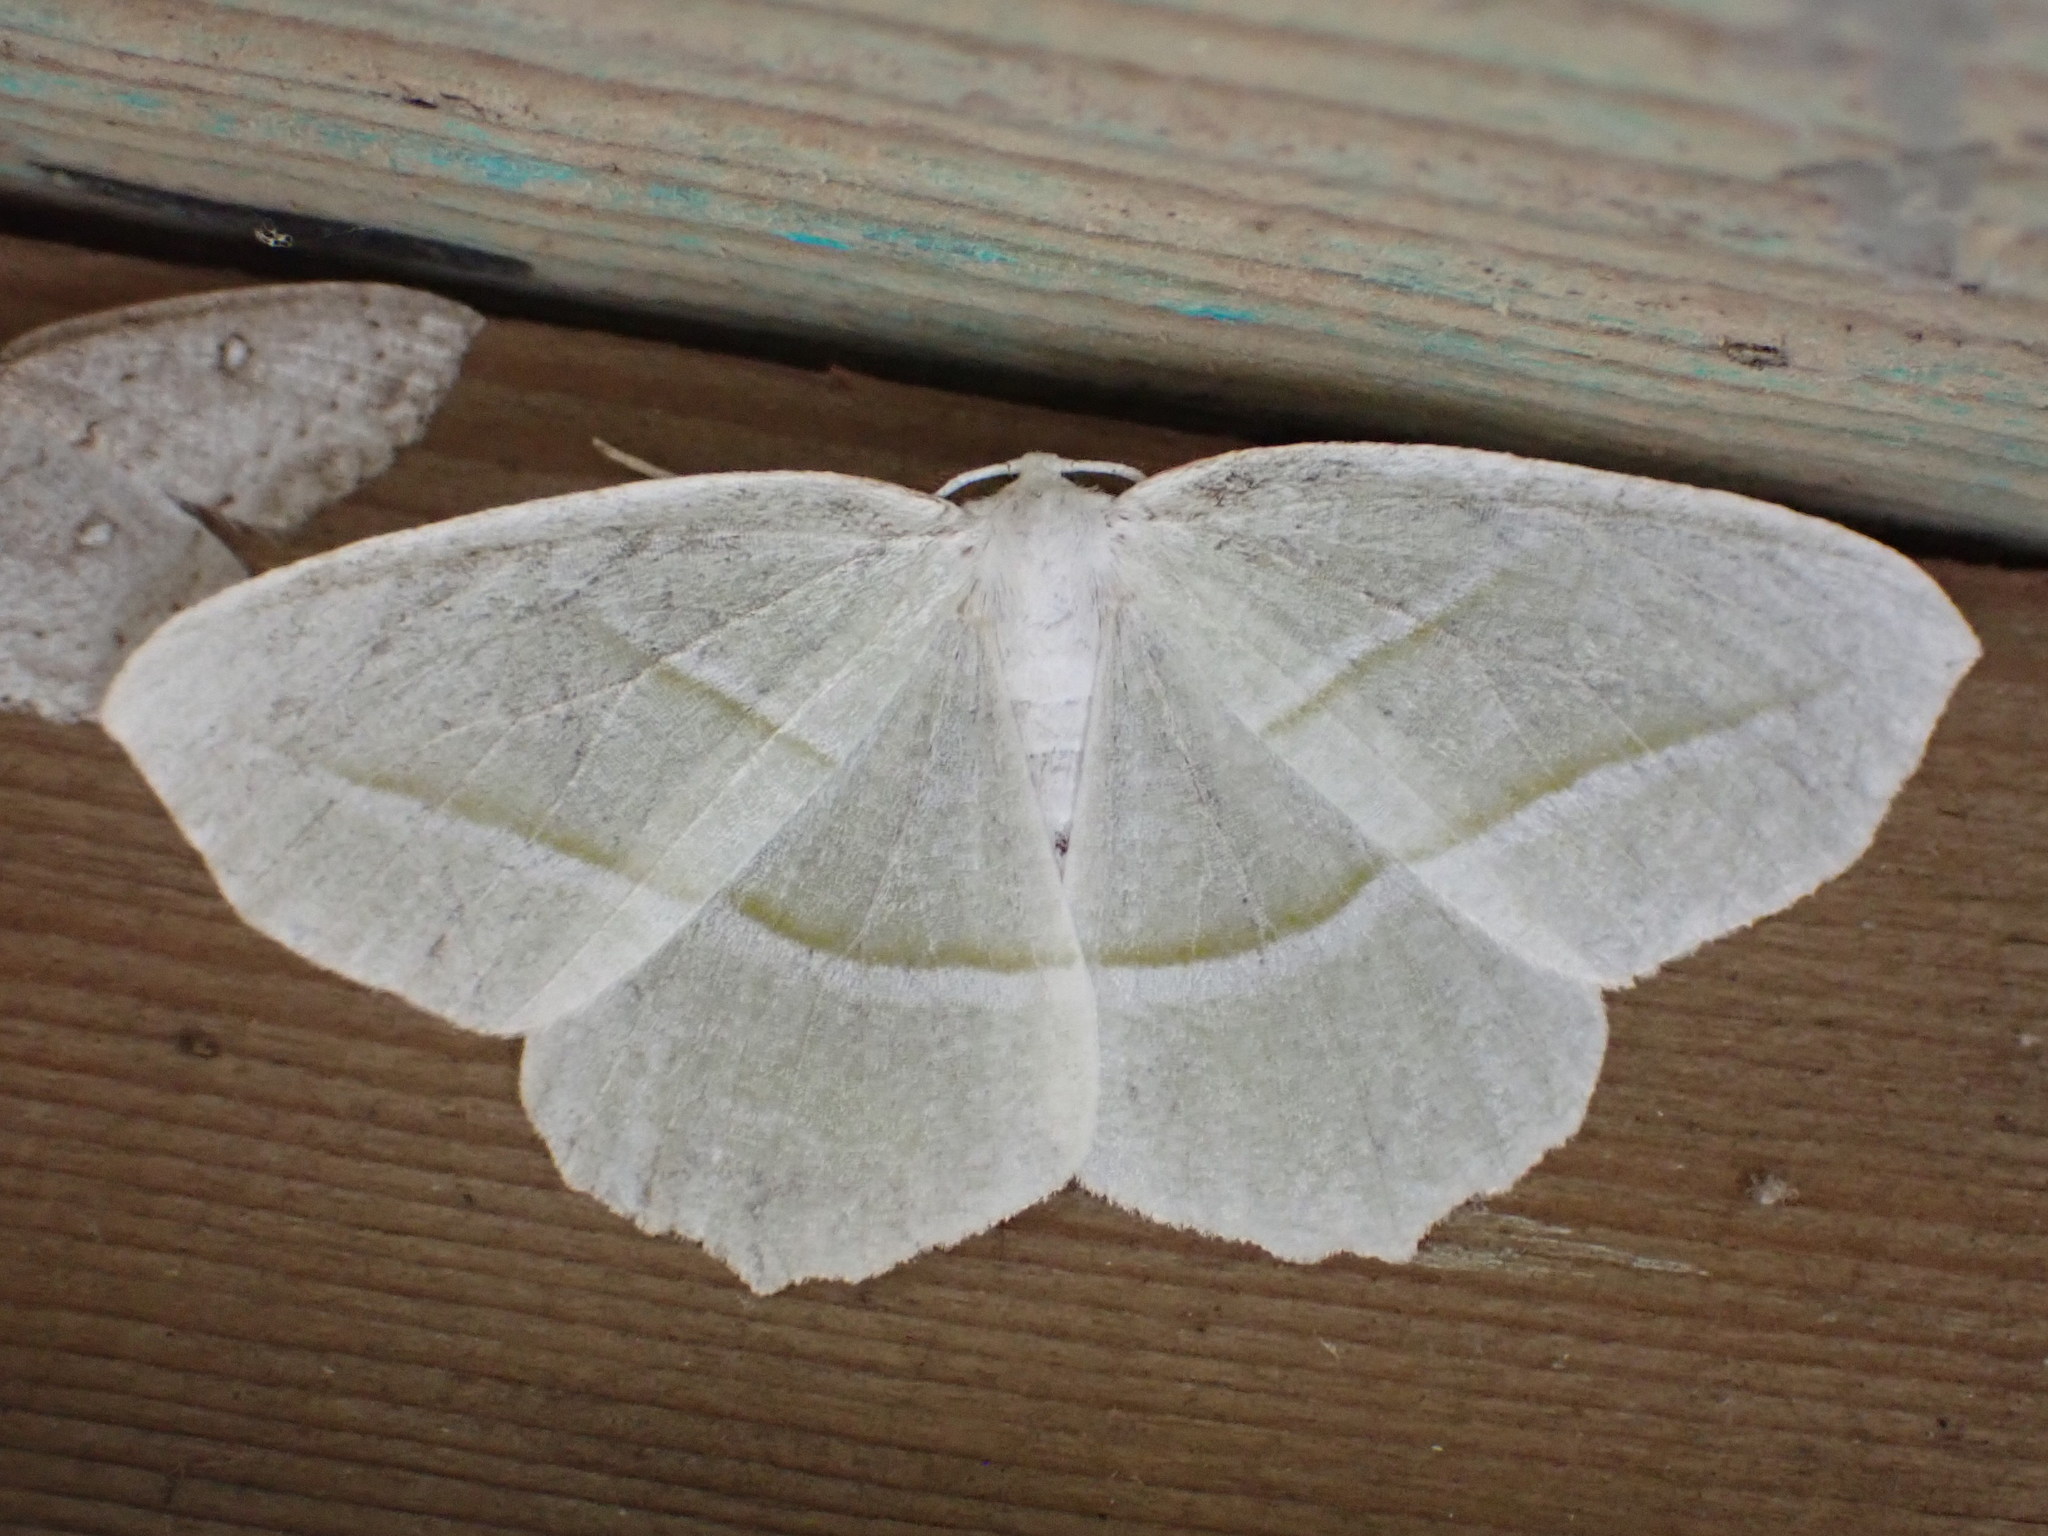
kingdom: Animalia
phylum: Arthropoda
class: Insecta
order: Lepidoptera
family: Geometridae
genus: Campaea
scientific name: Campaea perlata
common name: Fringed looper
